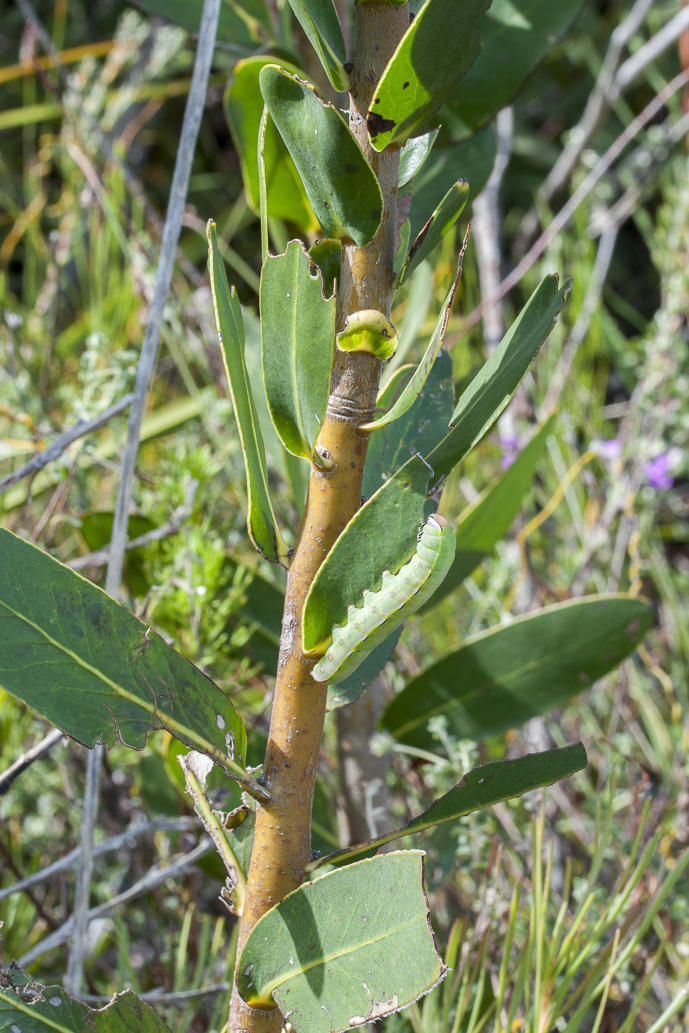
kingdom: Plantae
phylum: Tracheophyta
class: Magnoliopsida
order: Proteales
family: Proteaceae
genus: Protea
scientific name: Protea compacta
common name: Bot river protea
